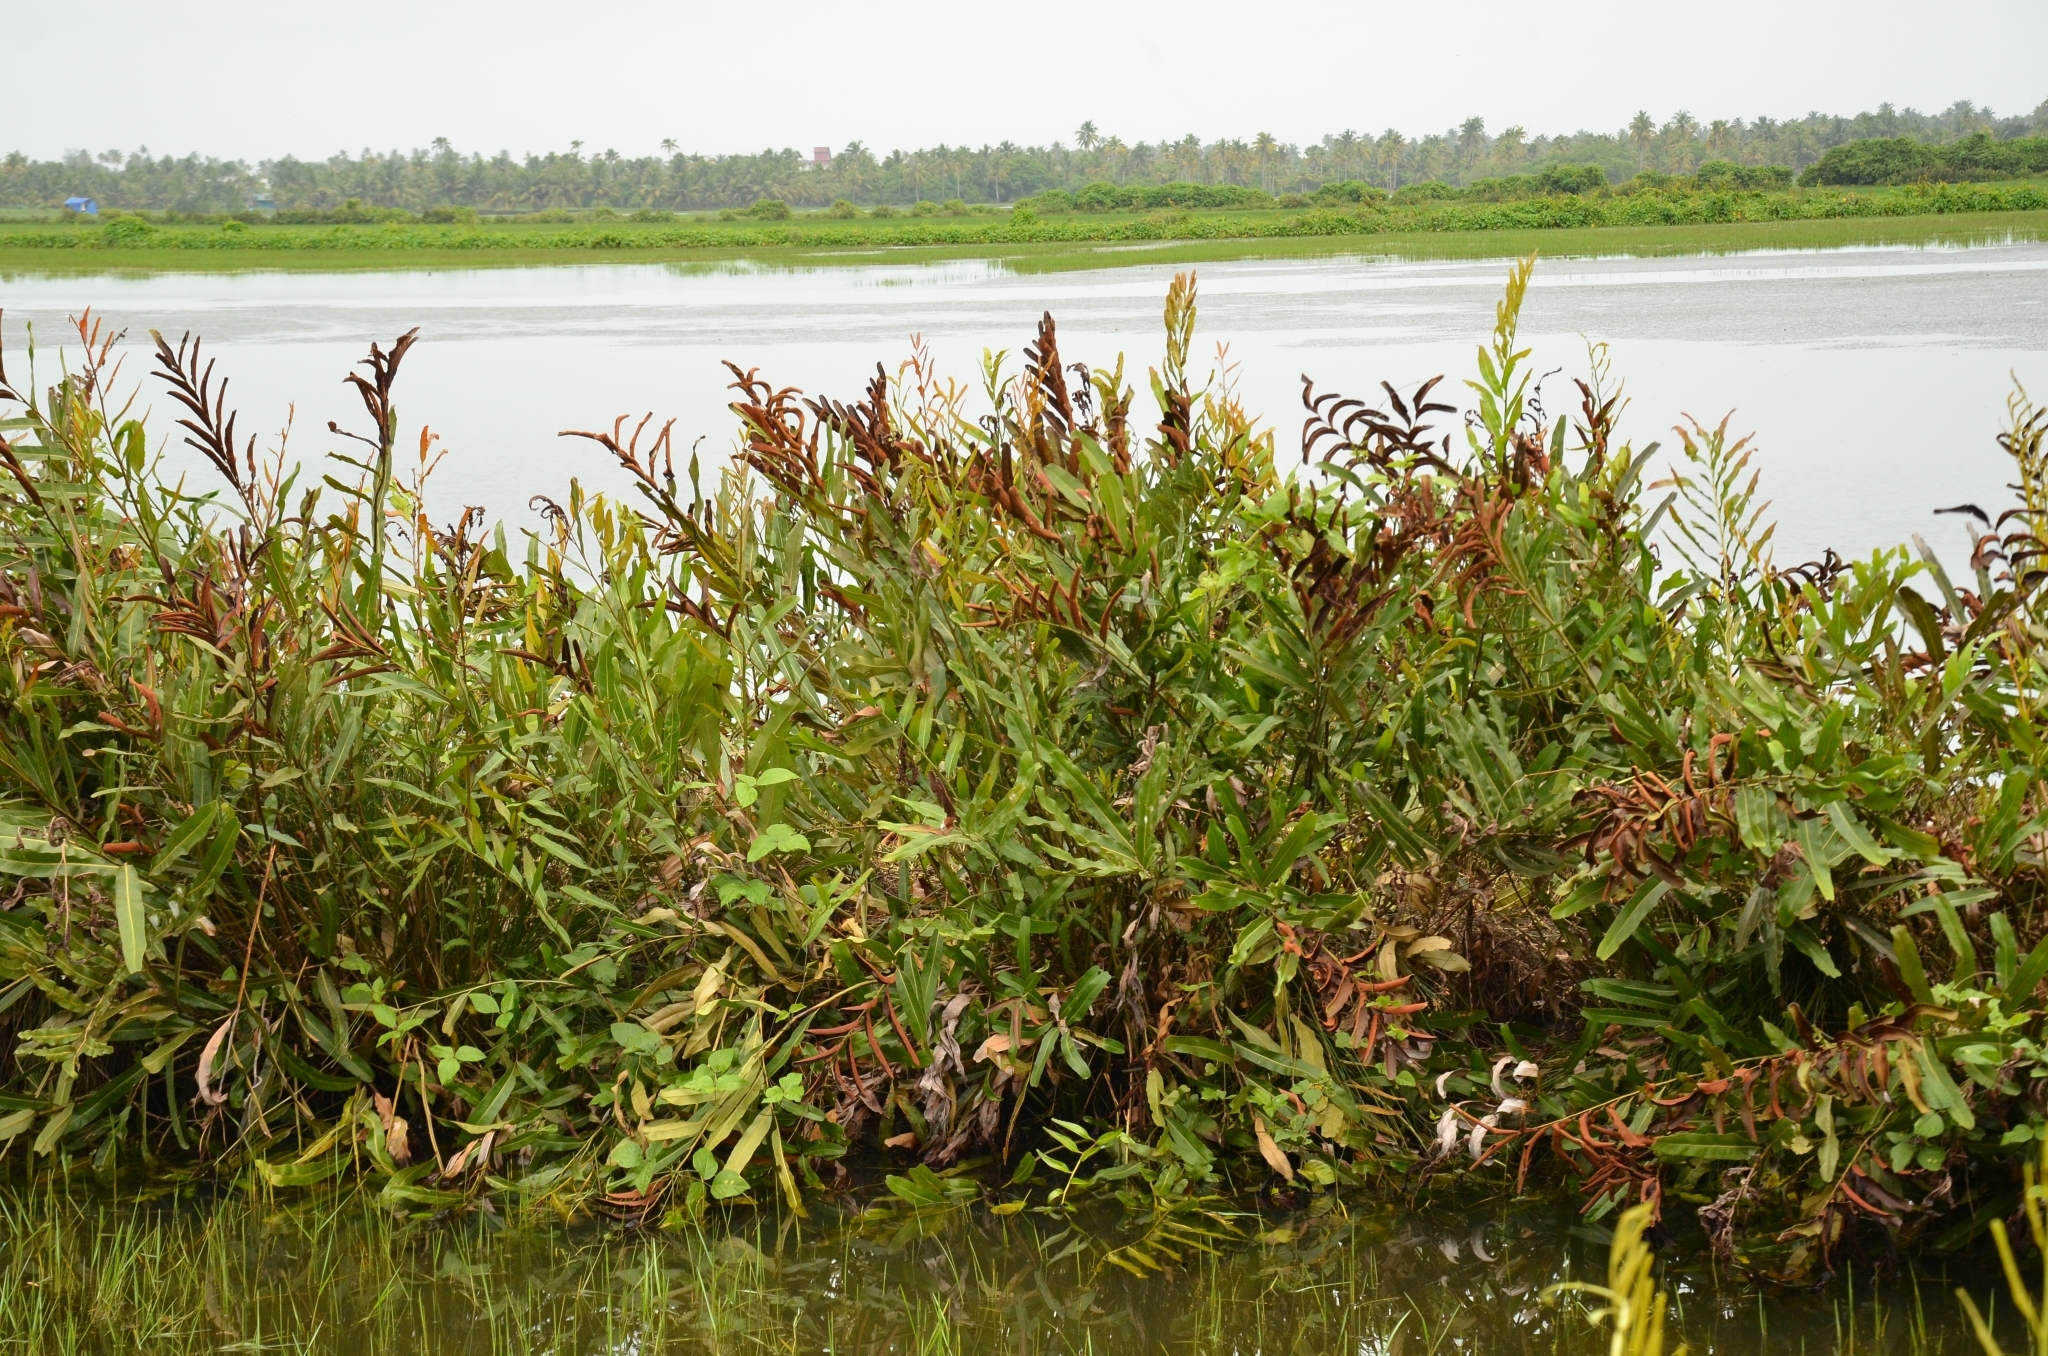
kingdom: Plantae
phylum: Tracheophyta
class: Polypodiopsida
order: Polypodiales
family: Pteridaceae
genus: Acrostichum
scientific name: Acrostichum aureum
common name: Leather fern
